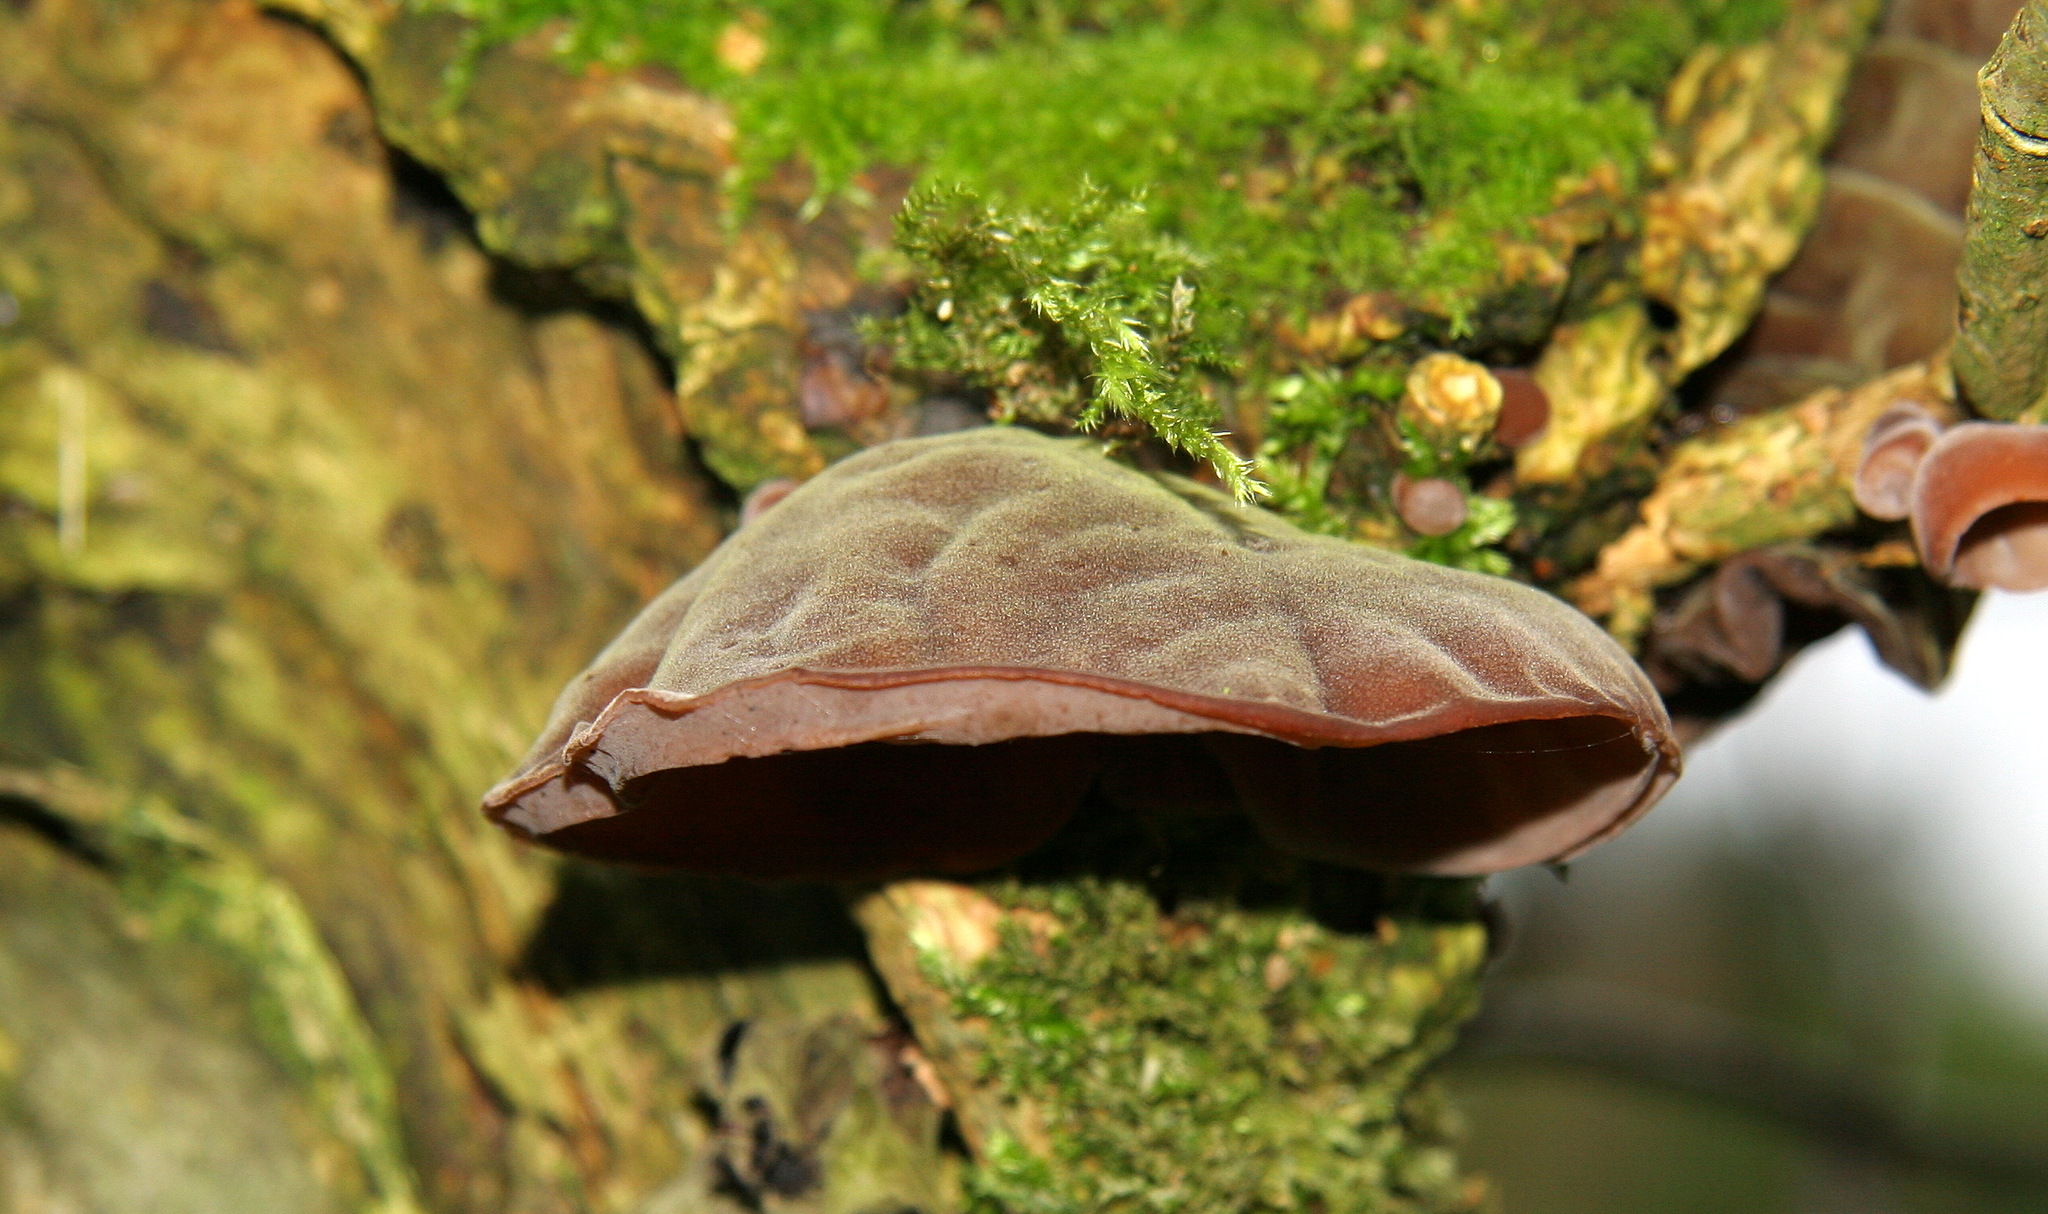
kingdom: Fungi
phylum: Basidiomycota
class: Agaricomycetes
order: Auriculariales
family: Auriculariaceae
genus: Auricularia
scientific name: Auricularia auricula-judae
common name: Jelly ear
